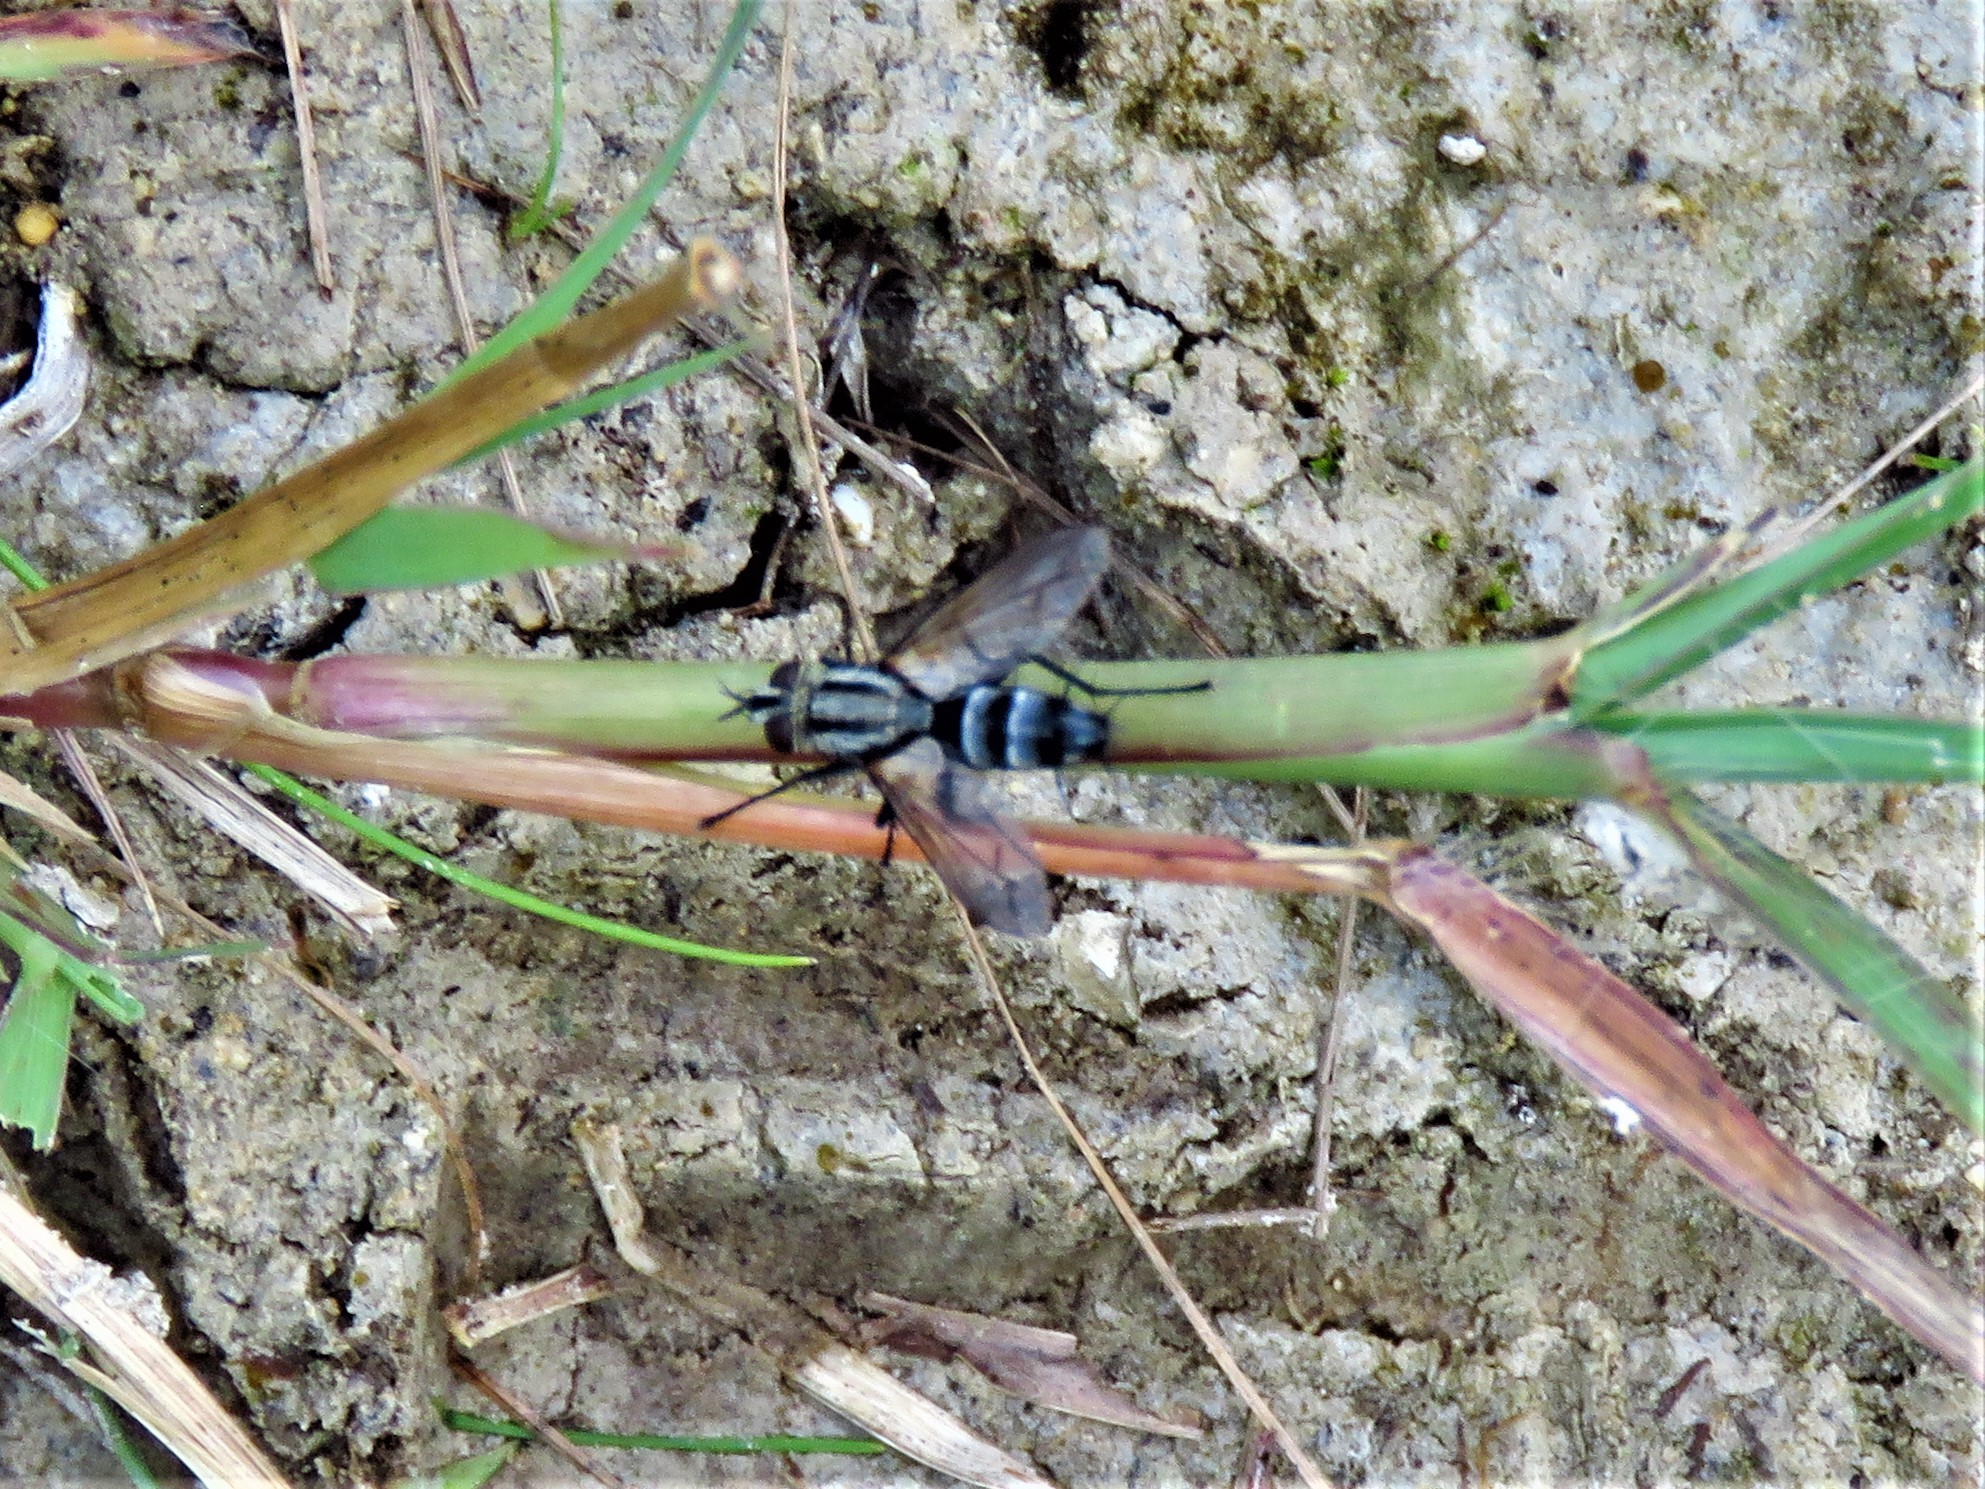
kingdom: Animalia
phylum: Arthropoda
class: Insecta
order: Diptera
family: Tachinidae
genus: Vanderwulpia
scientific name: Vanderwulpia sequens
